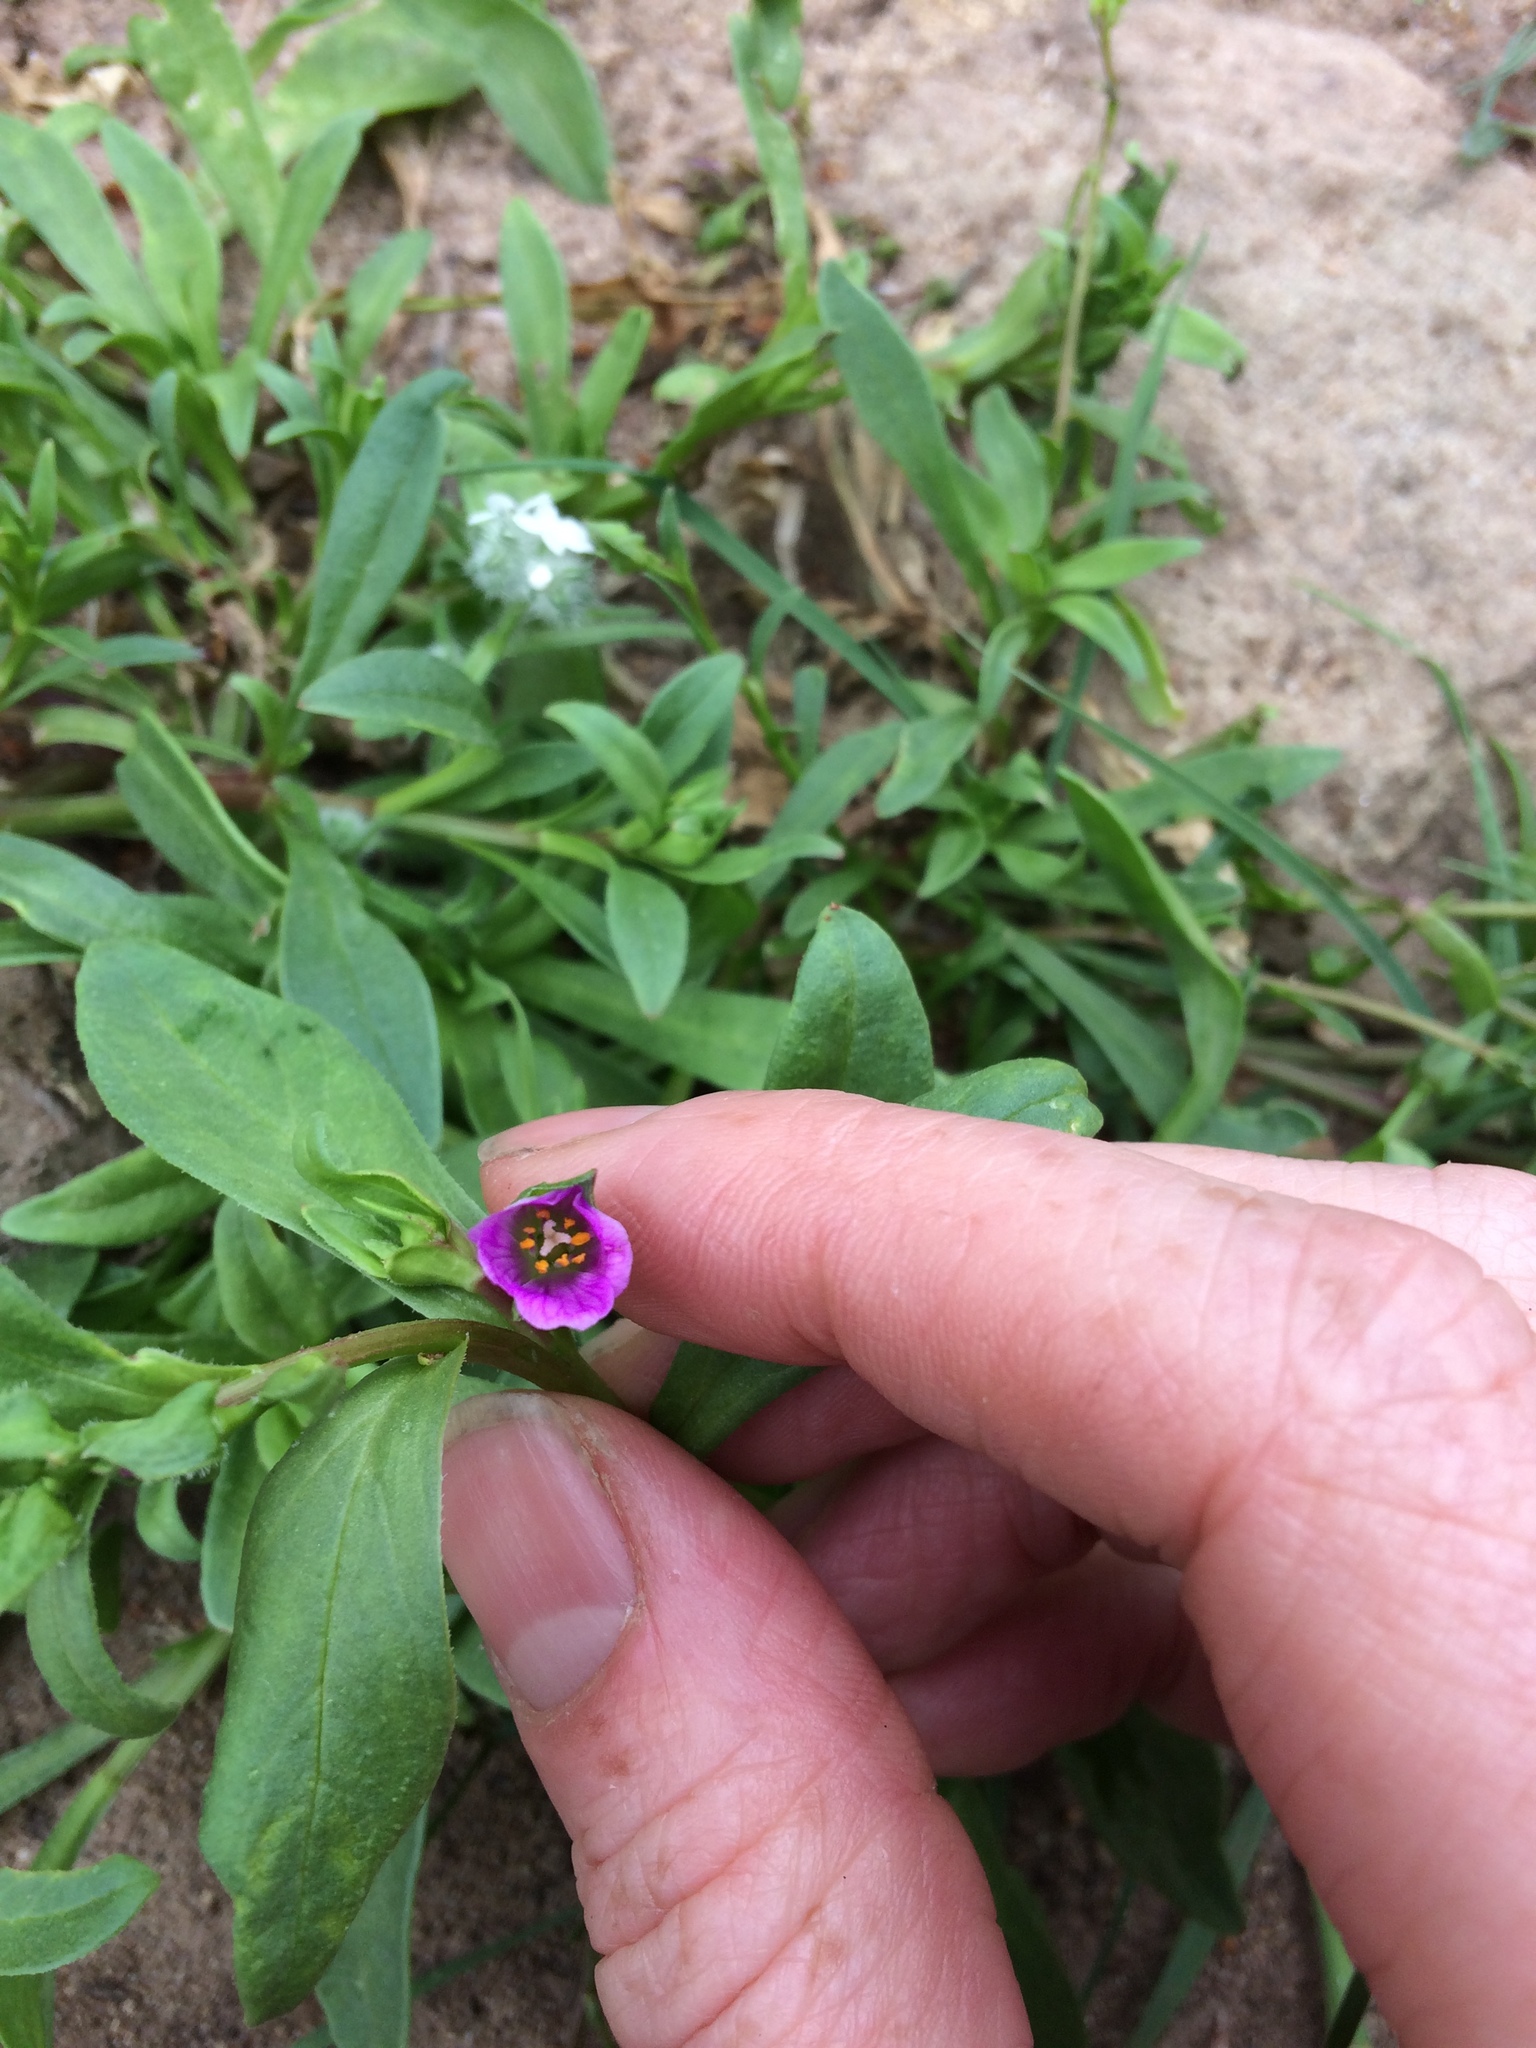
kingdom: Plantae
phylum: Tracheophyta
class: Magnoliopsida
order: Caryophyllales
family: Montiaceae
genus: Calandrinia
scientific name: Calandrinia menziesii
